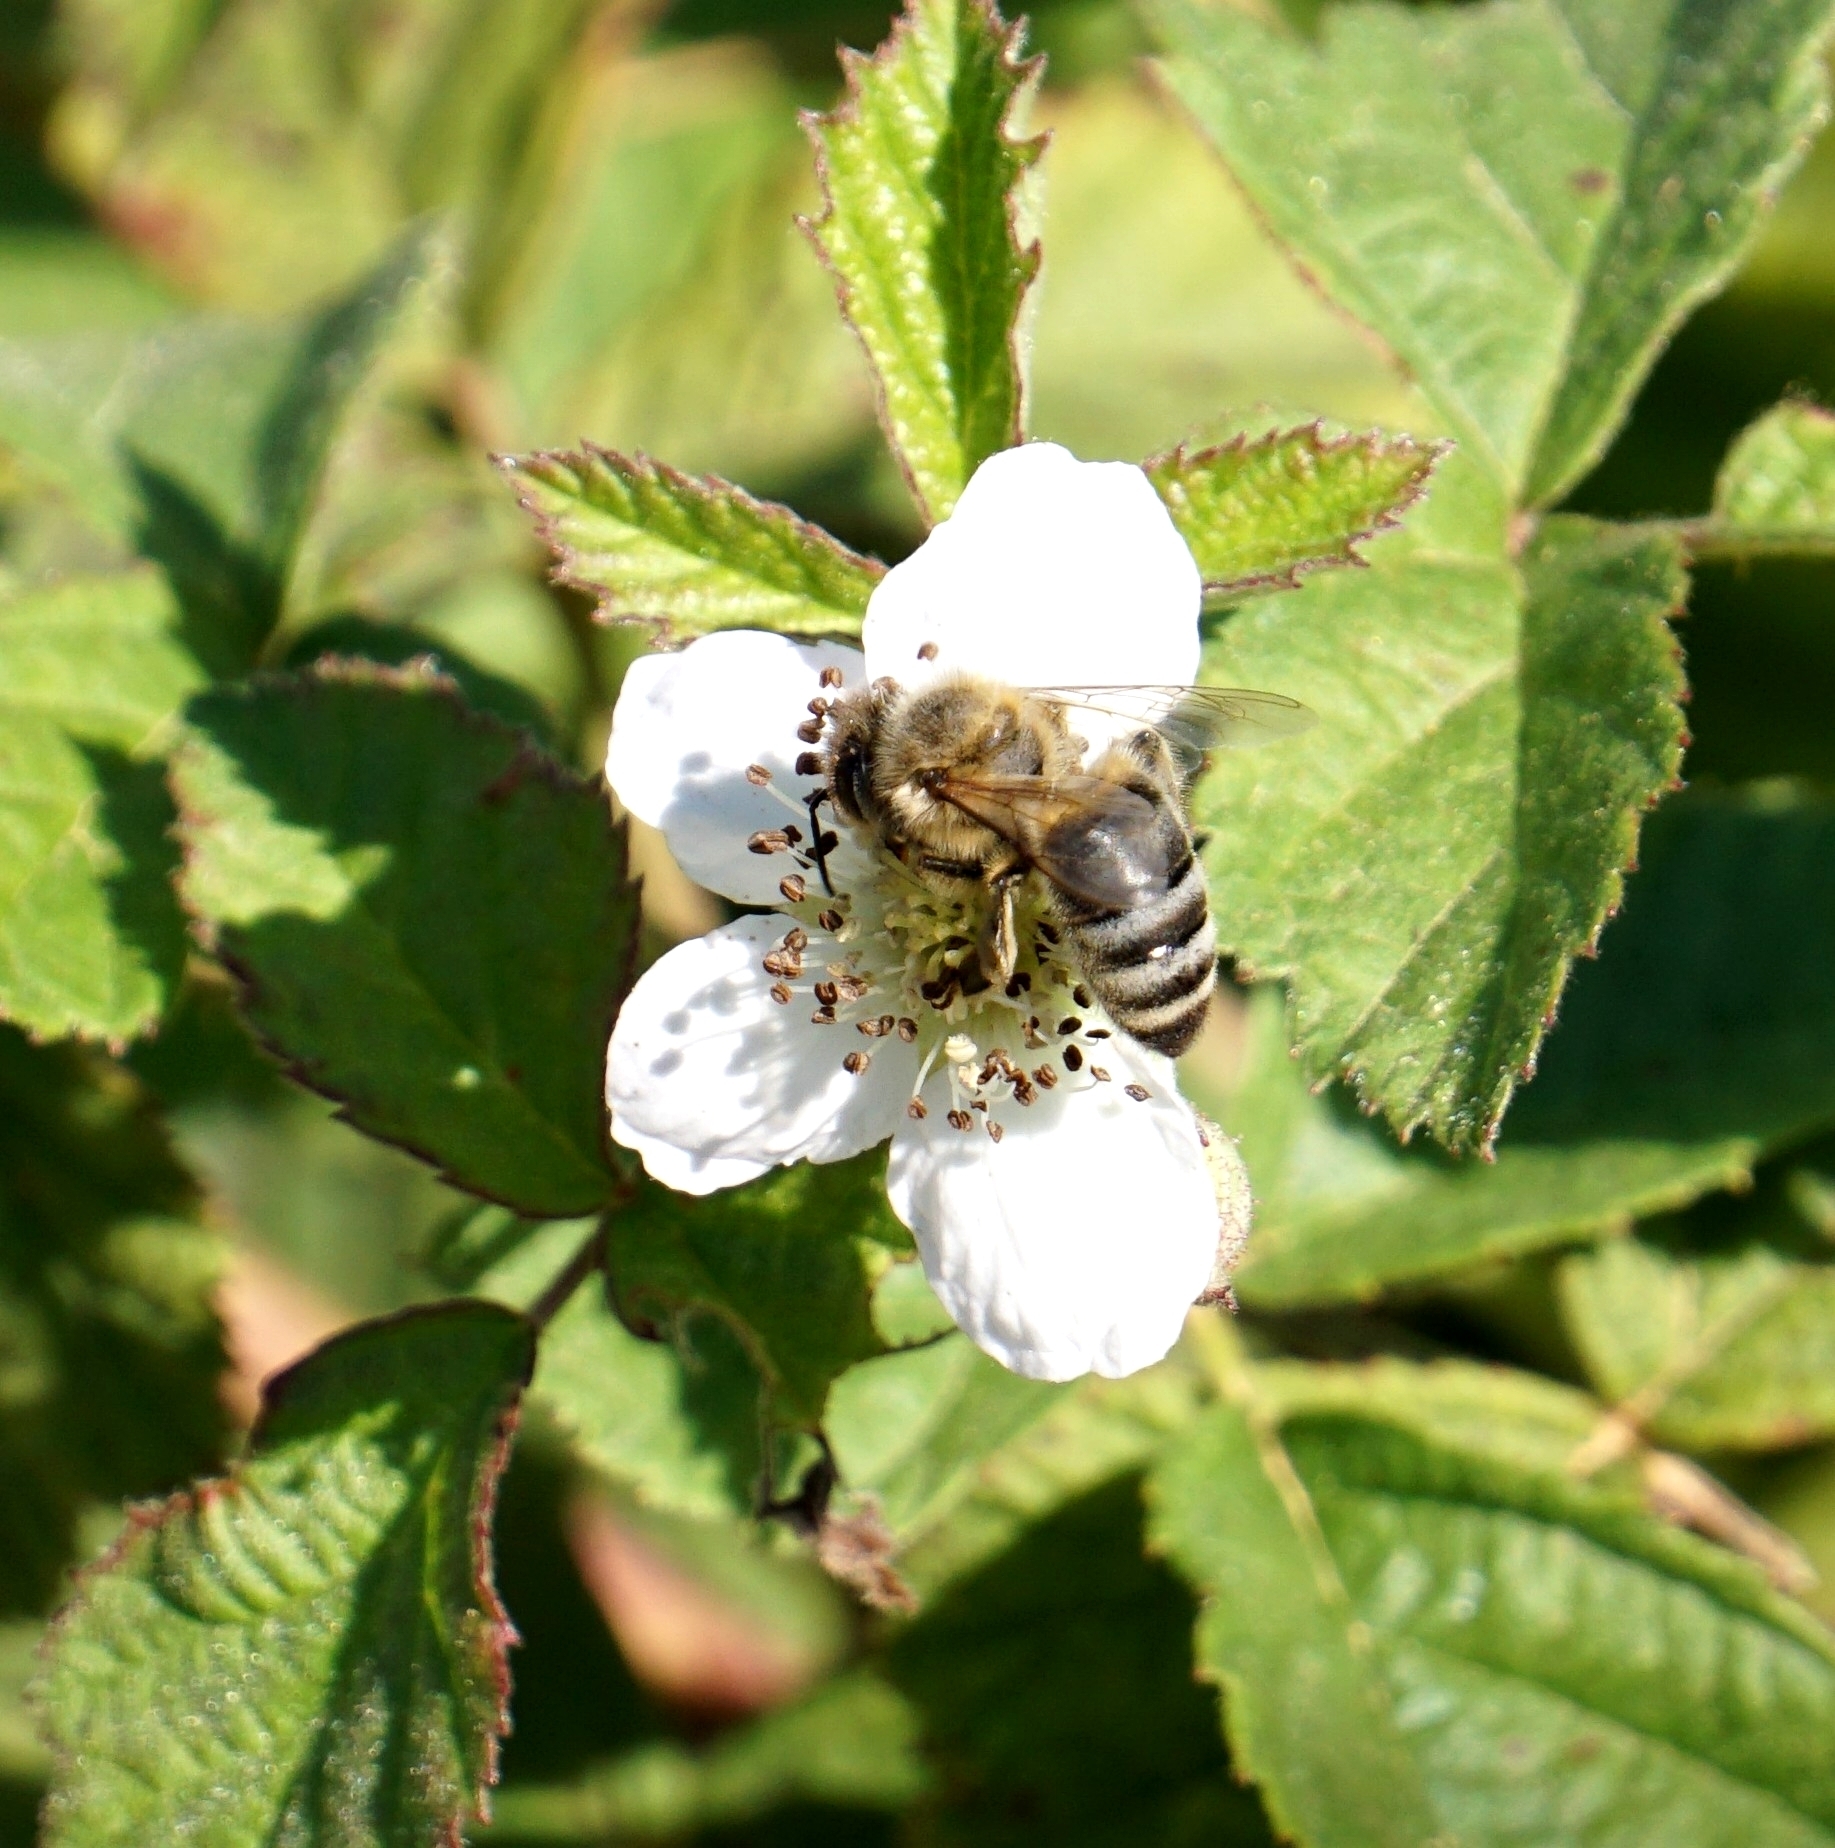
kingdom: Animalia
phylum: Arthropoda
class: Insecta
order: Hymenoptera
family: Apidae
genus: Apis
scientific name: Apis mellifera
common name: Honey bee
